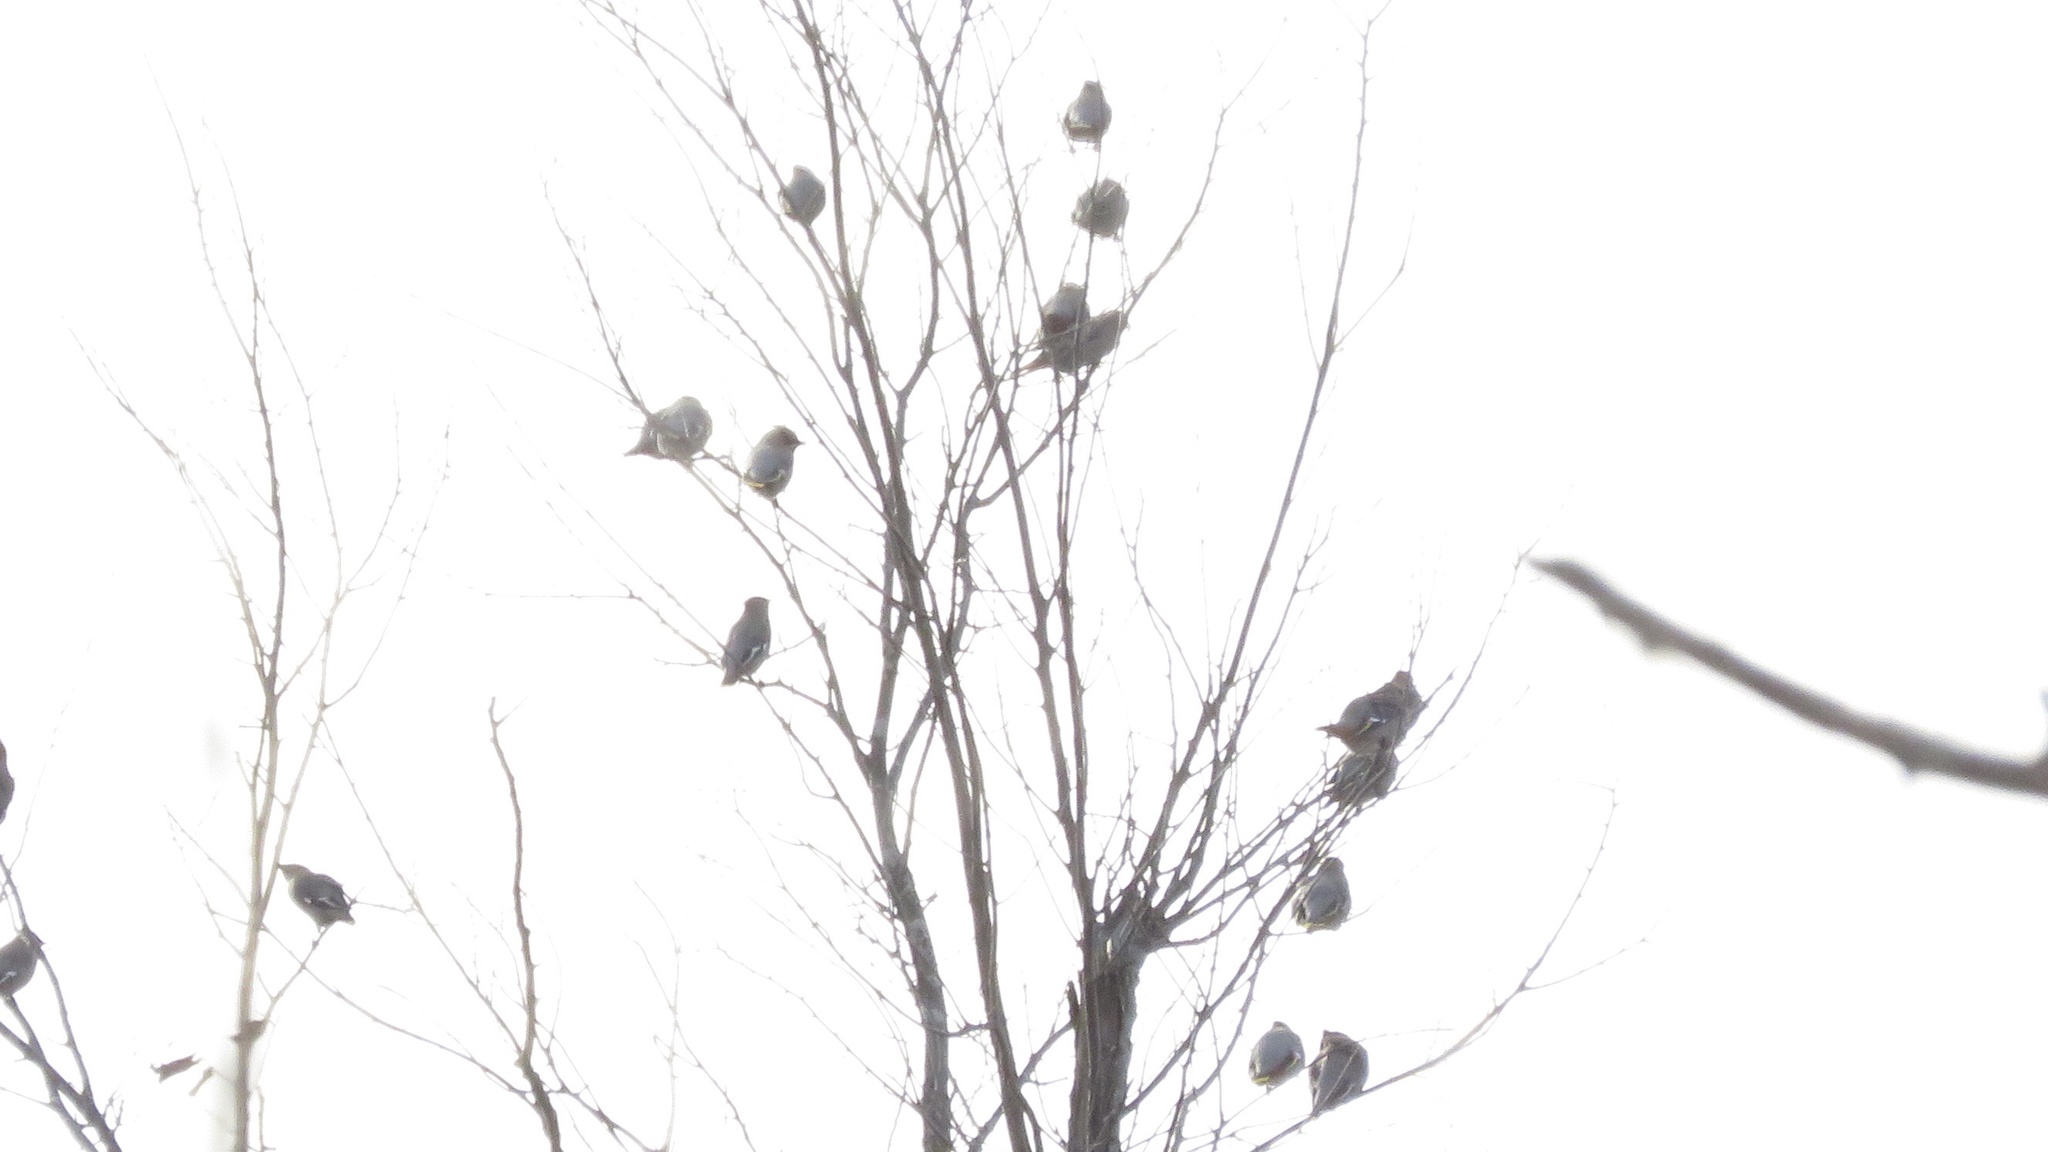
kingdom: Animalia
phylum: Chordata
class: Aves
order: Passeriformes
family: Bombycillidae
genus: Bombycilla
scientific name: Bombycilla garrulus
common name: Bohemian waxwing
